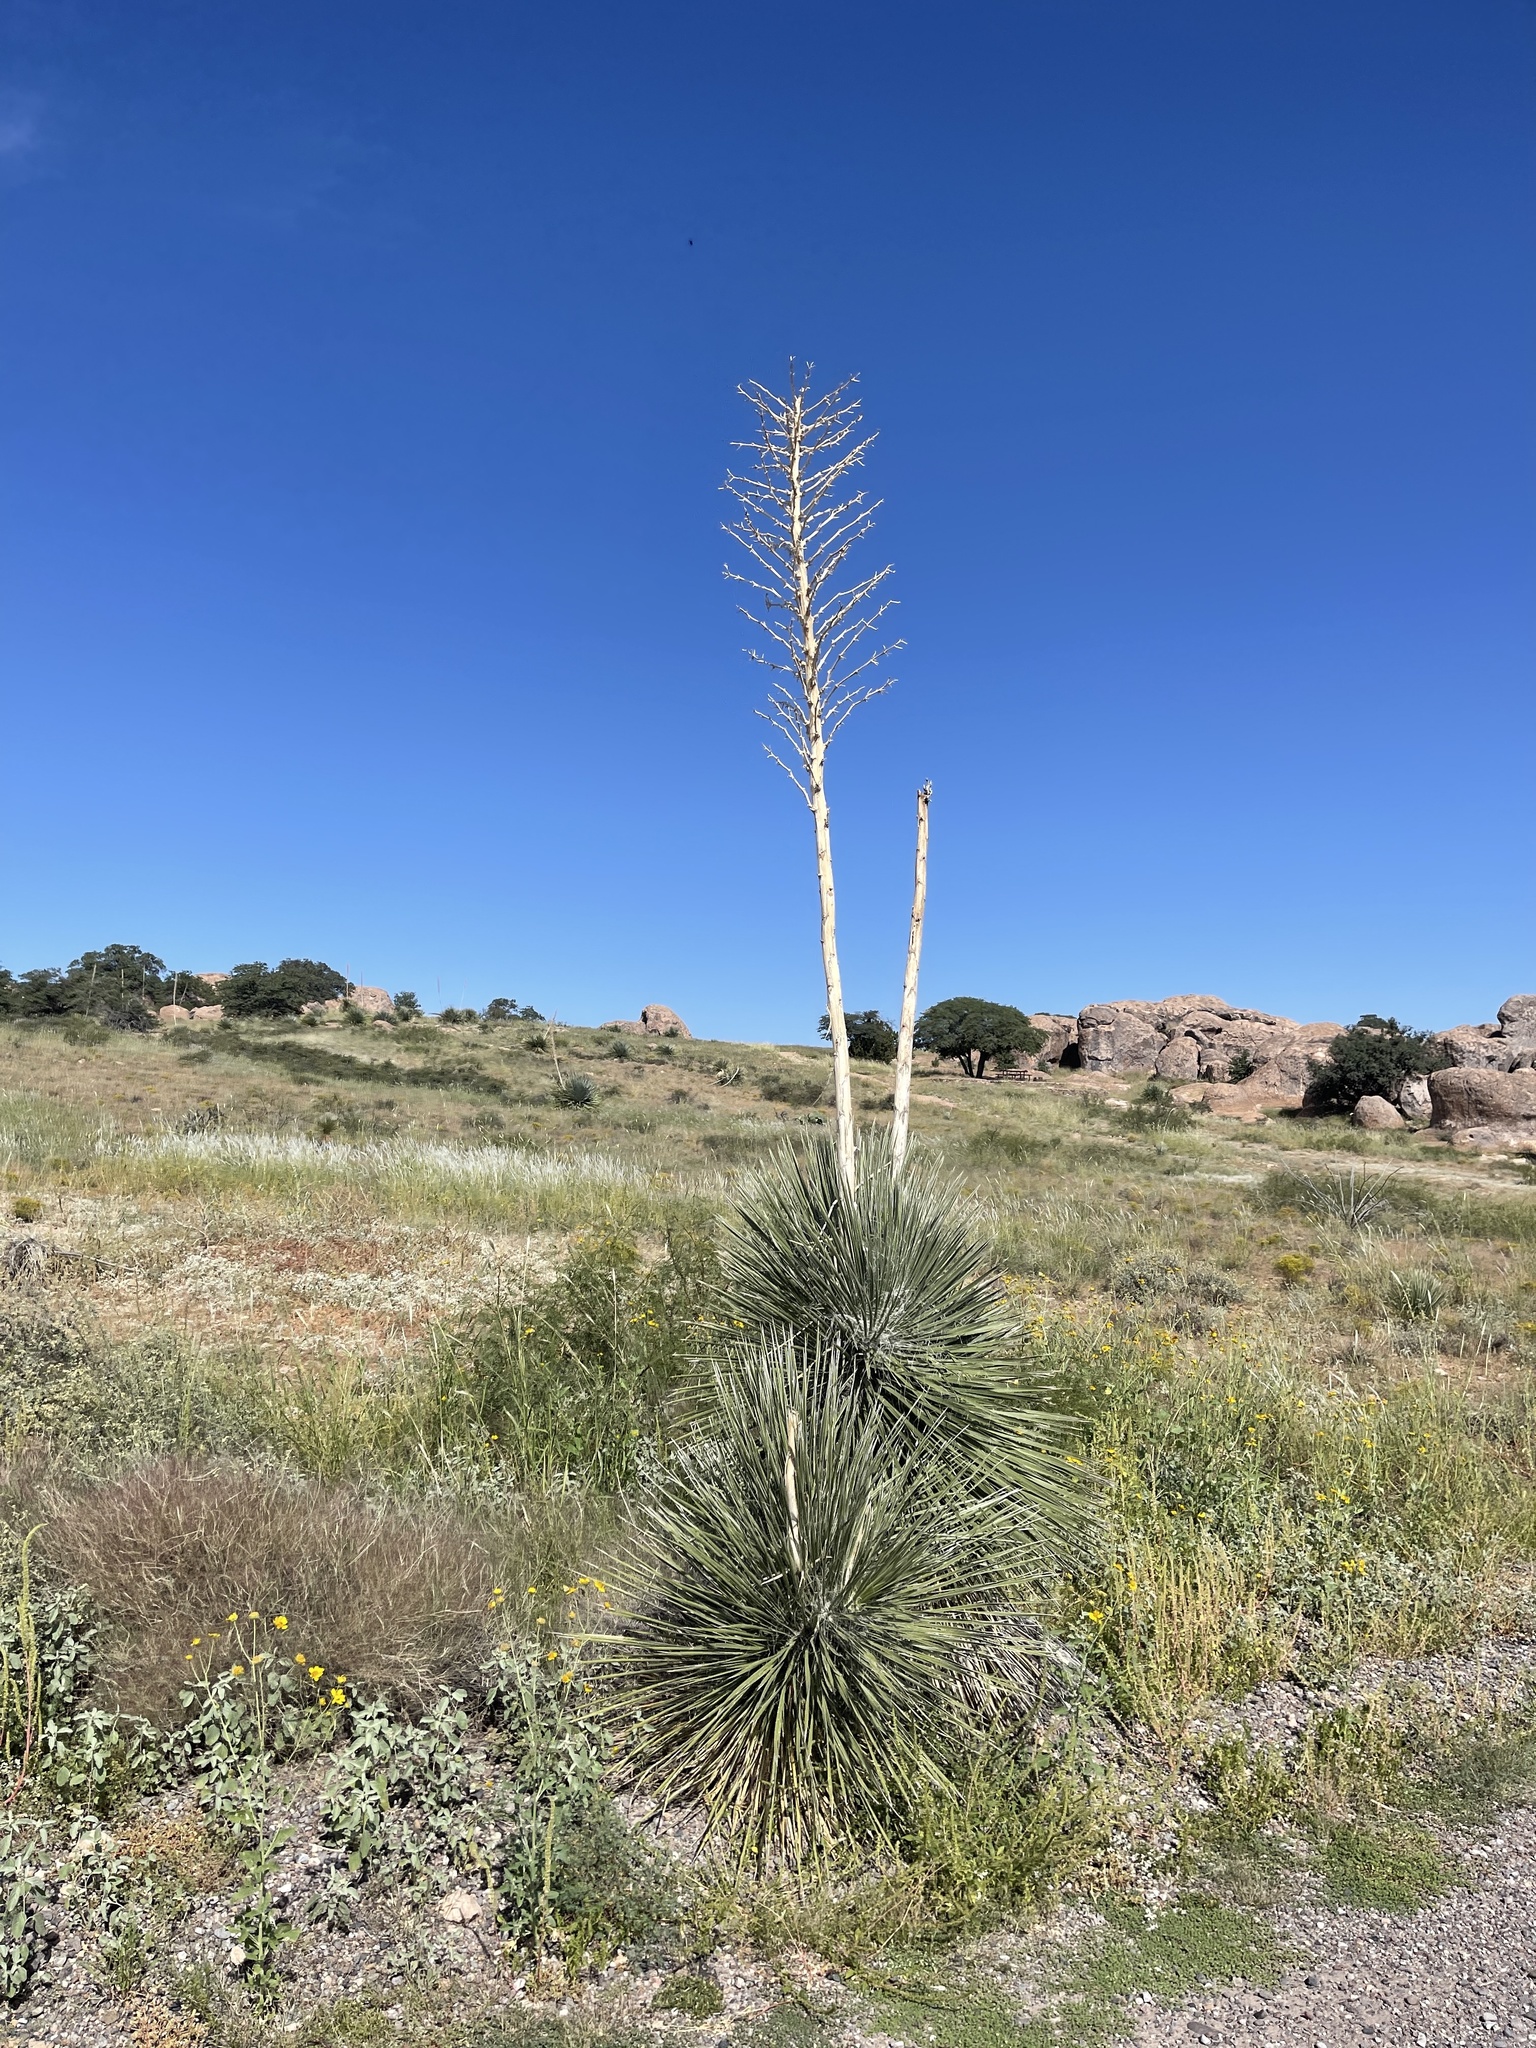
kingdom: Plantae
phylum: Tracheophyta
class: Liliopsida
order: Asparagales
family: Asparagaceae
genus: Yucca
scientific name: Yucca elata
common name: Palmella
